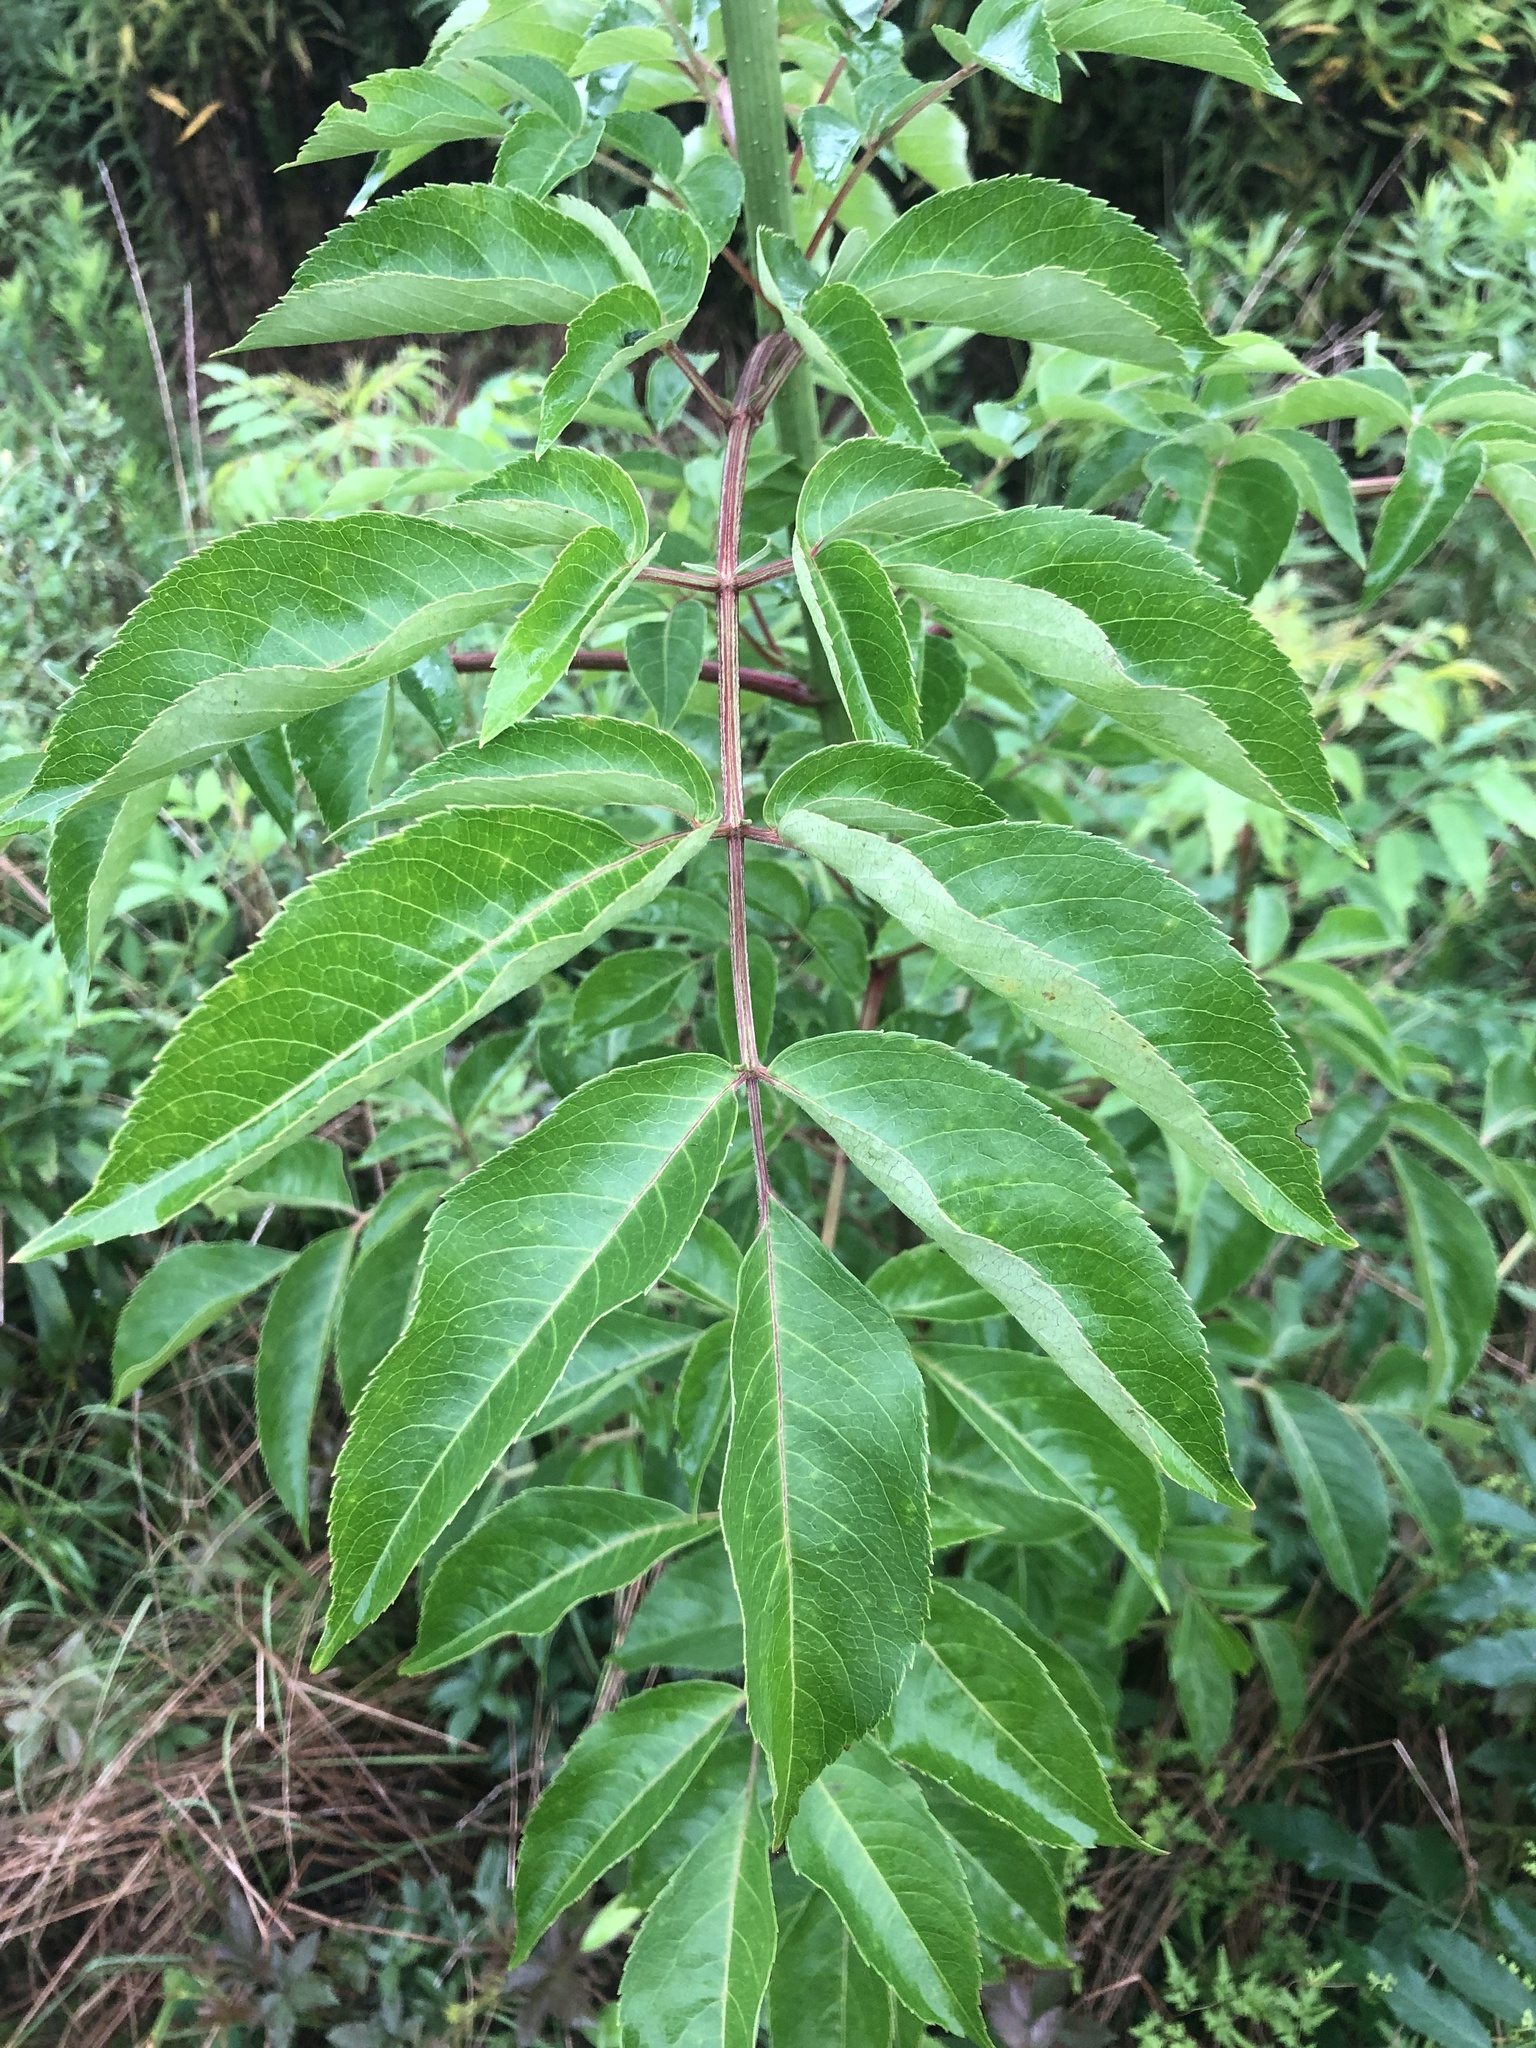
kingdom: Plantae
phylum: Tracheophyta
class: Magnoliopsida
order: Dipsacales
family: Viburnaceae
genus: Sambucus
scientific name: Sambucus canadensis
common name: American elder
